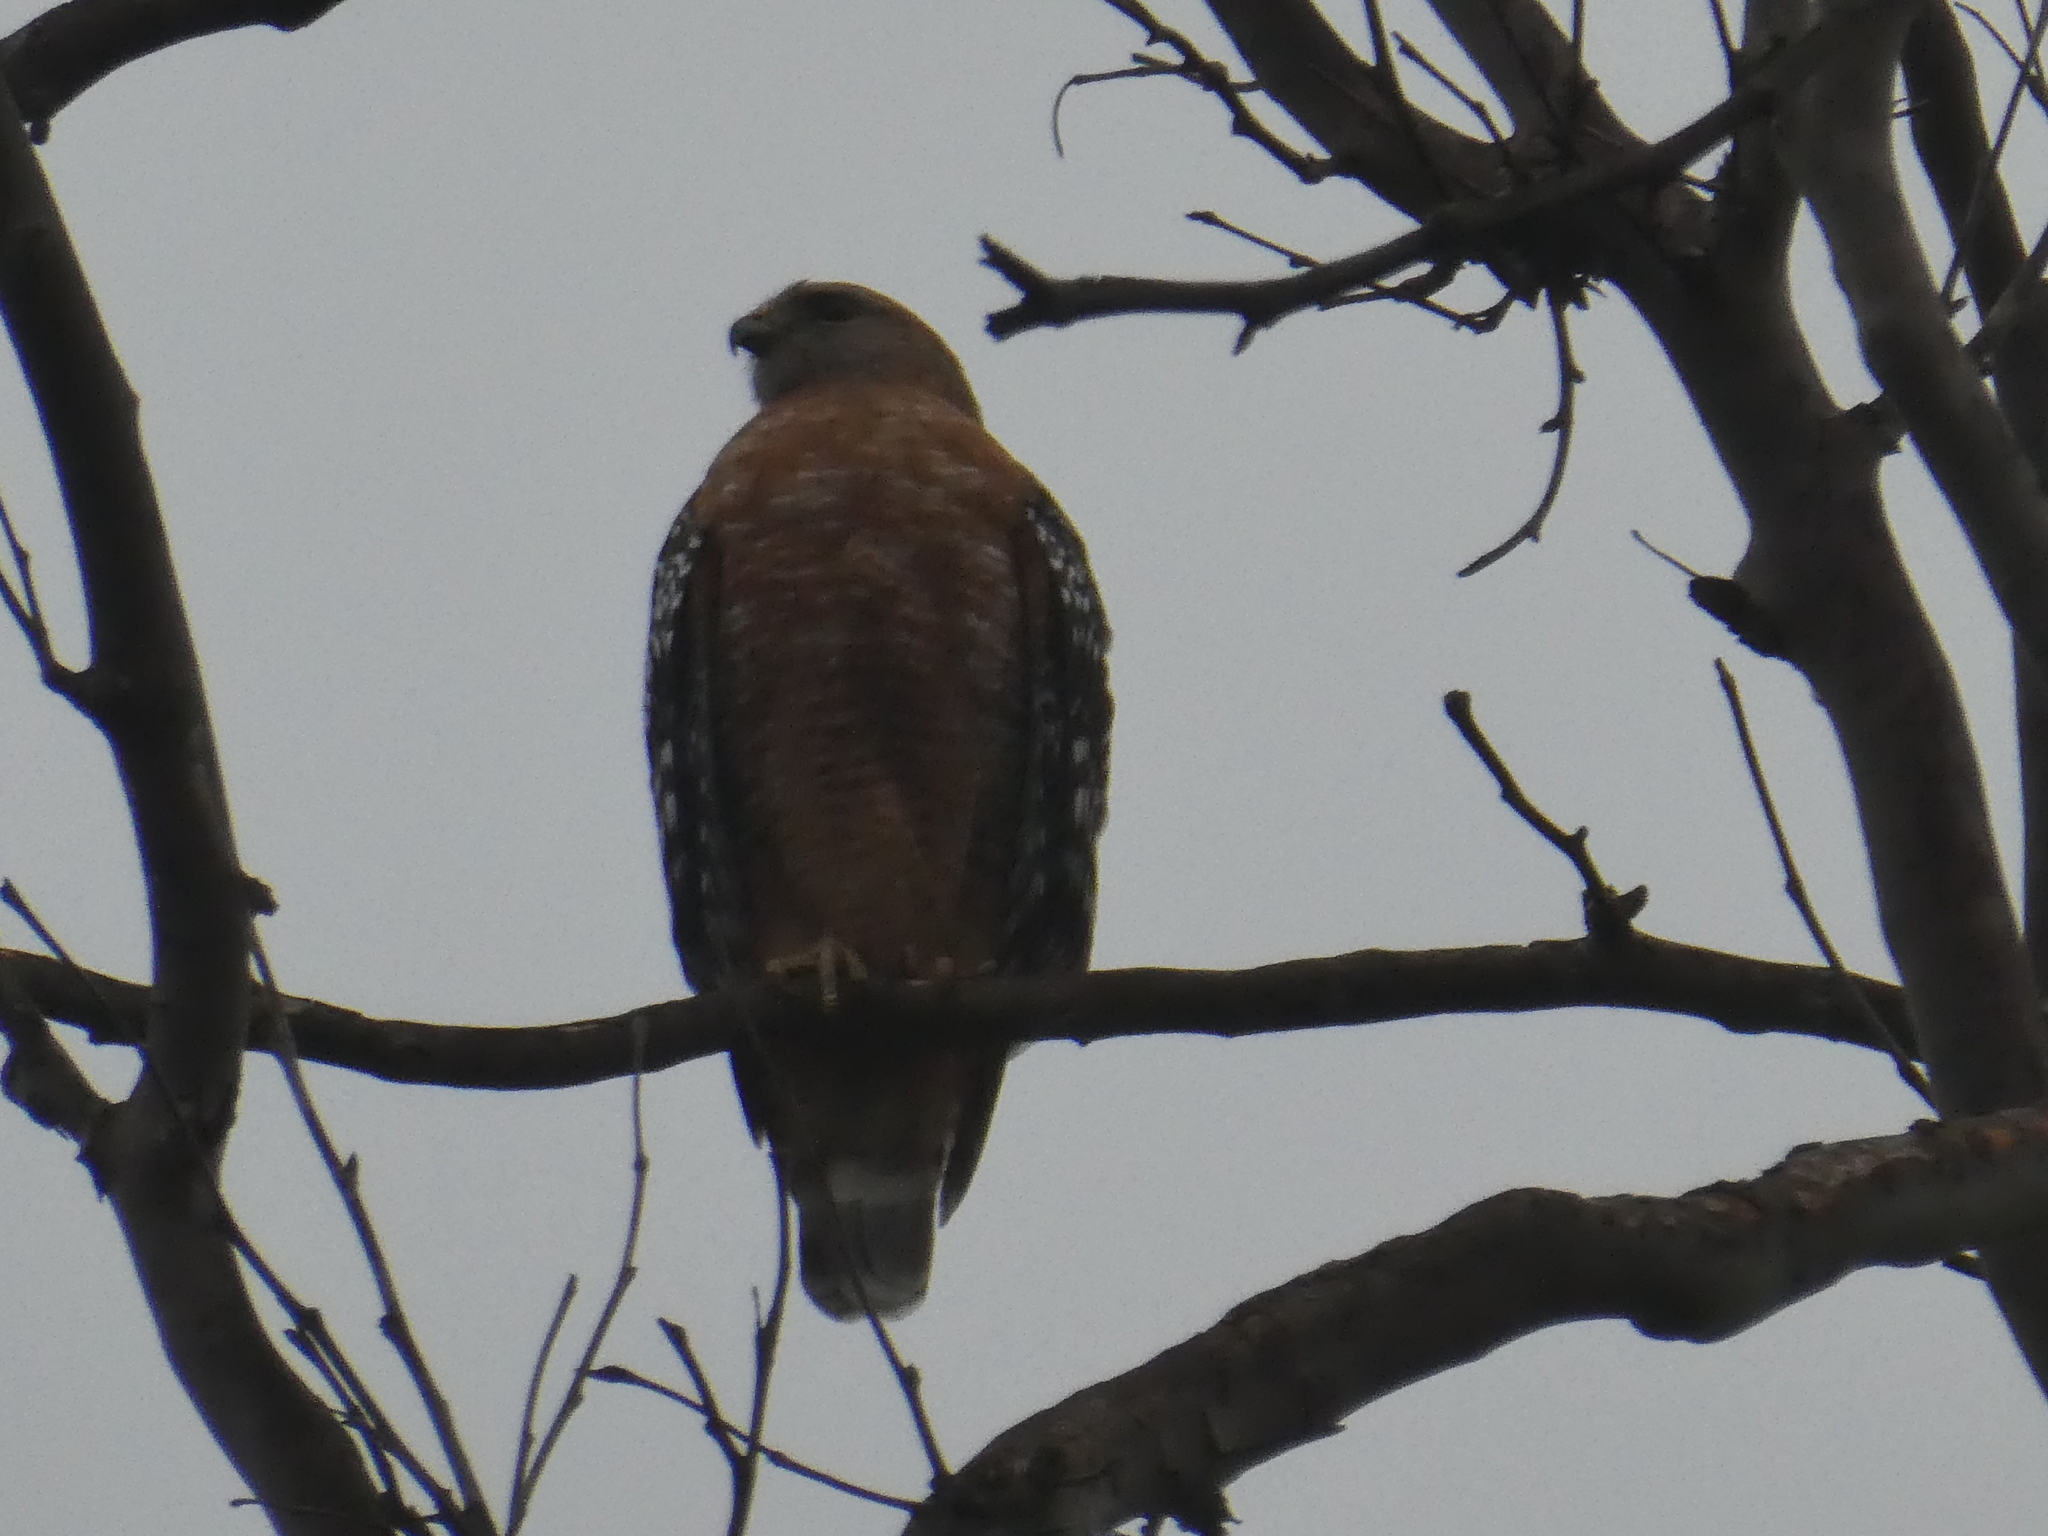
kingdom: Animalia
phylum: Chordata
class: Aves
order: Accipitriformes
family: Accipitridae
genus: Buteo
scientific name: Buteo lineatus
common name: Red-shouldered hawk
